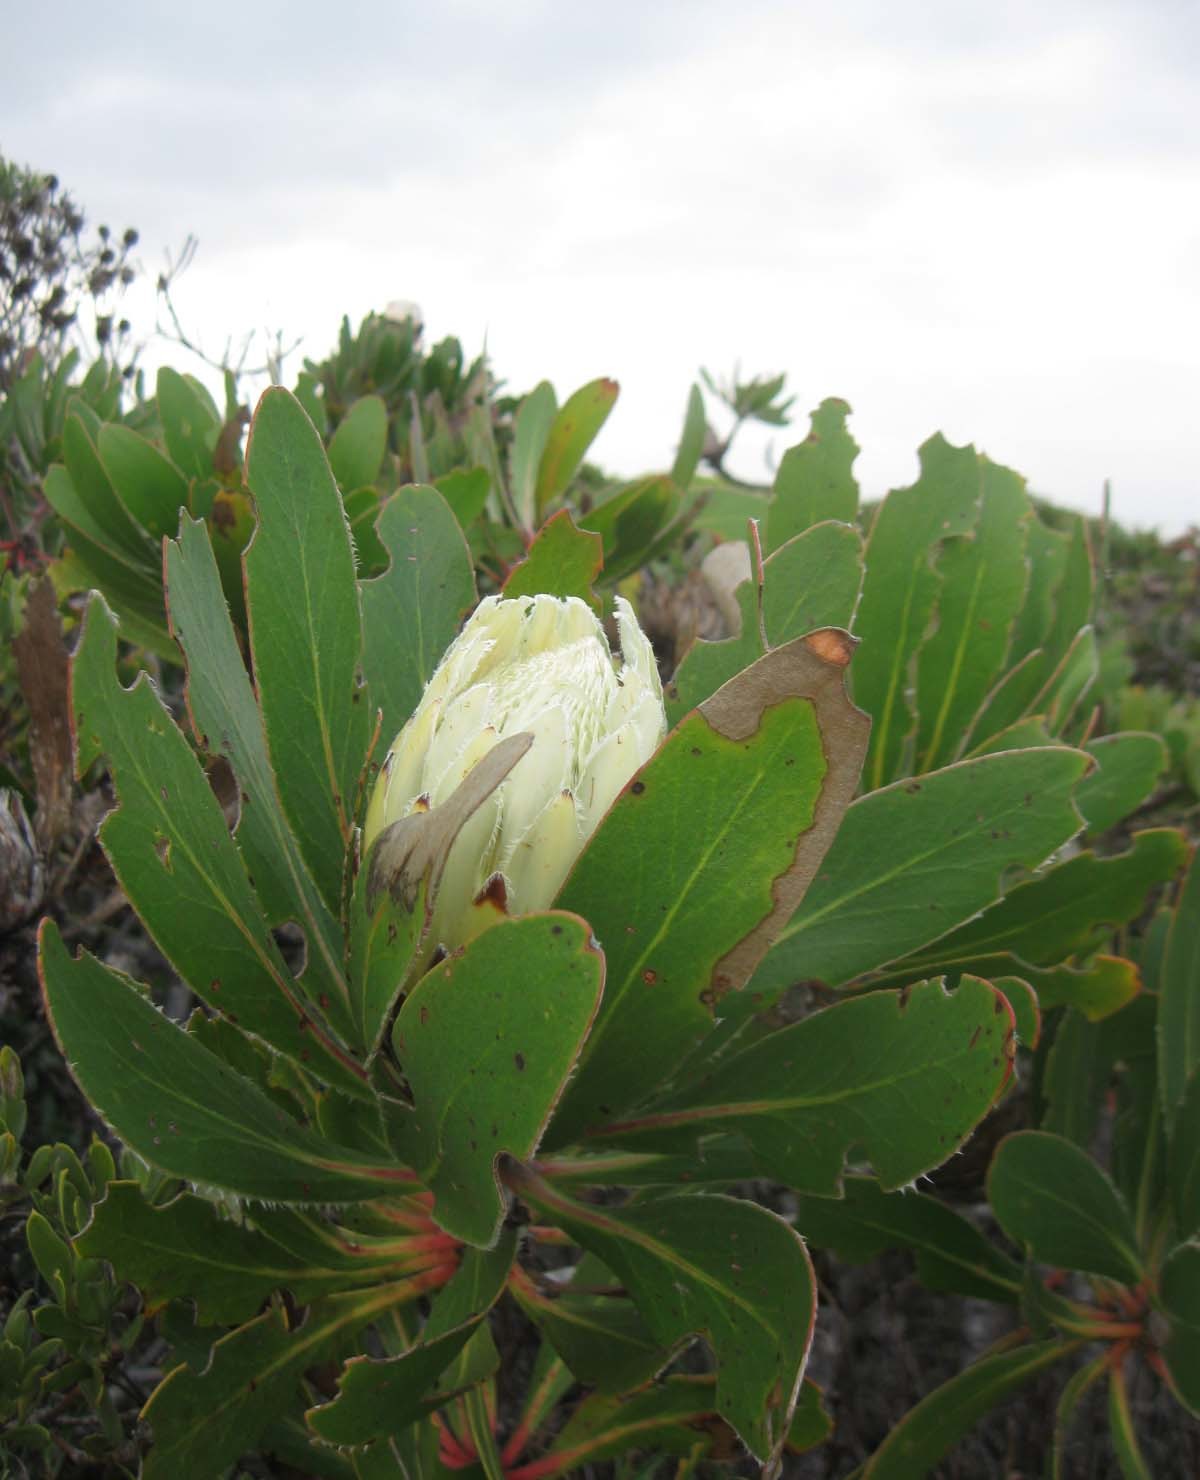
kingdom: Plantae
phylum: Tracheophyta
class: Magnoliopsida
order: Proteales
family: Proteaceae
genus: Protea
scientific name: Protea obtusifolia
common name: Bredasdorp sugarbush
